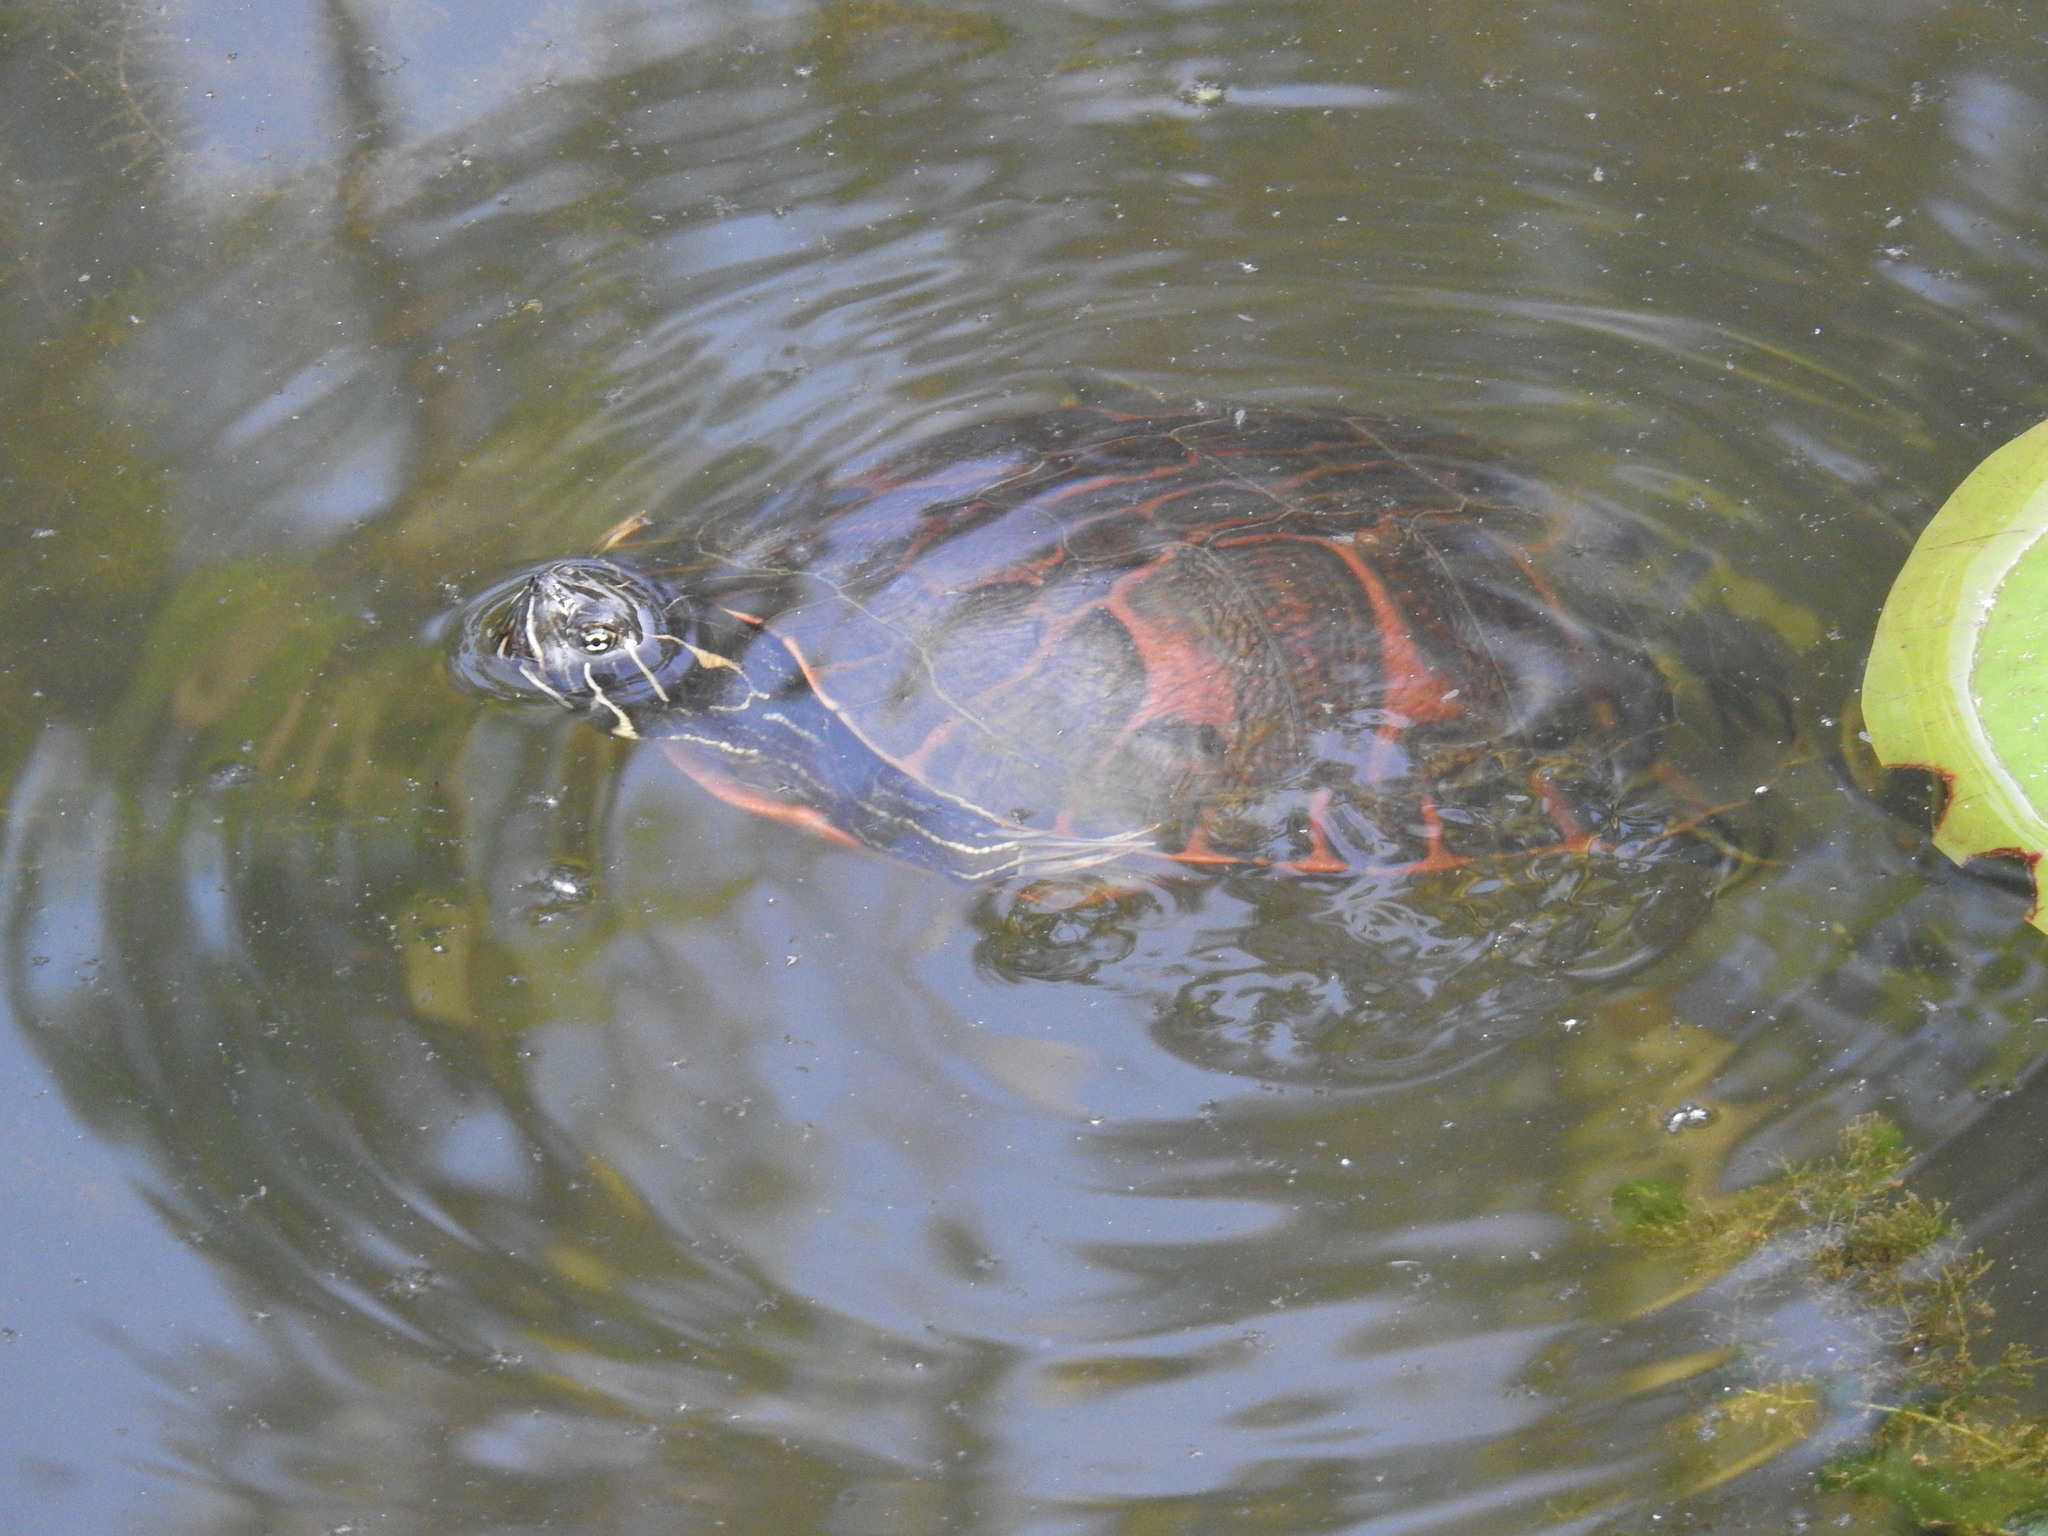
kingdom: Animalia
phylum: Chordata
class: Testudines
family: Emydidae
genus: Pseudemys
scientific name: Pseudemys rubriventris
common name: American red-bellied turtle
